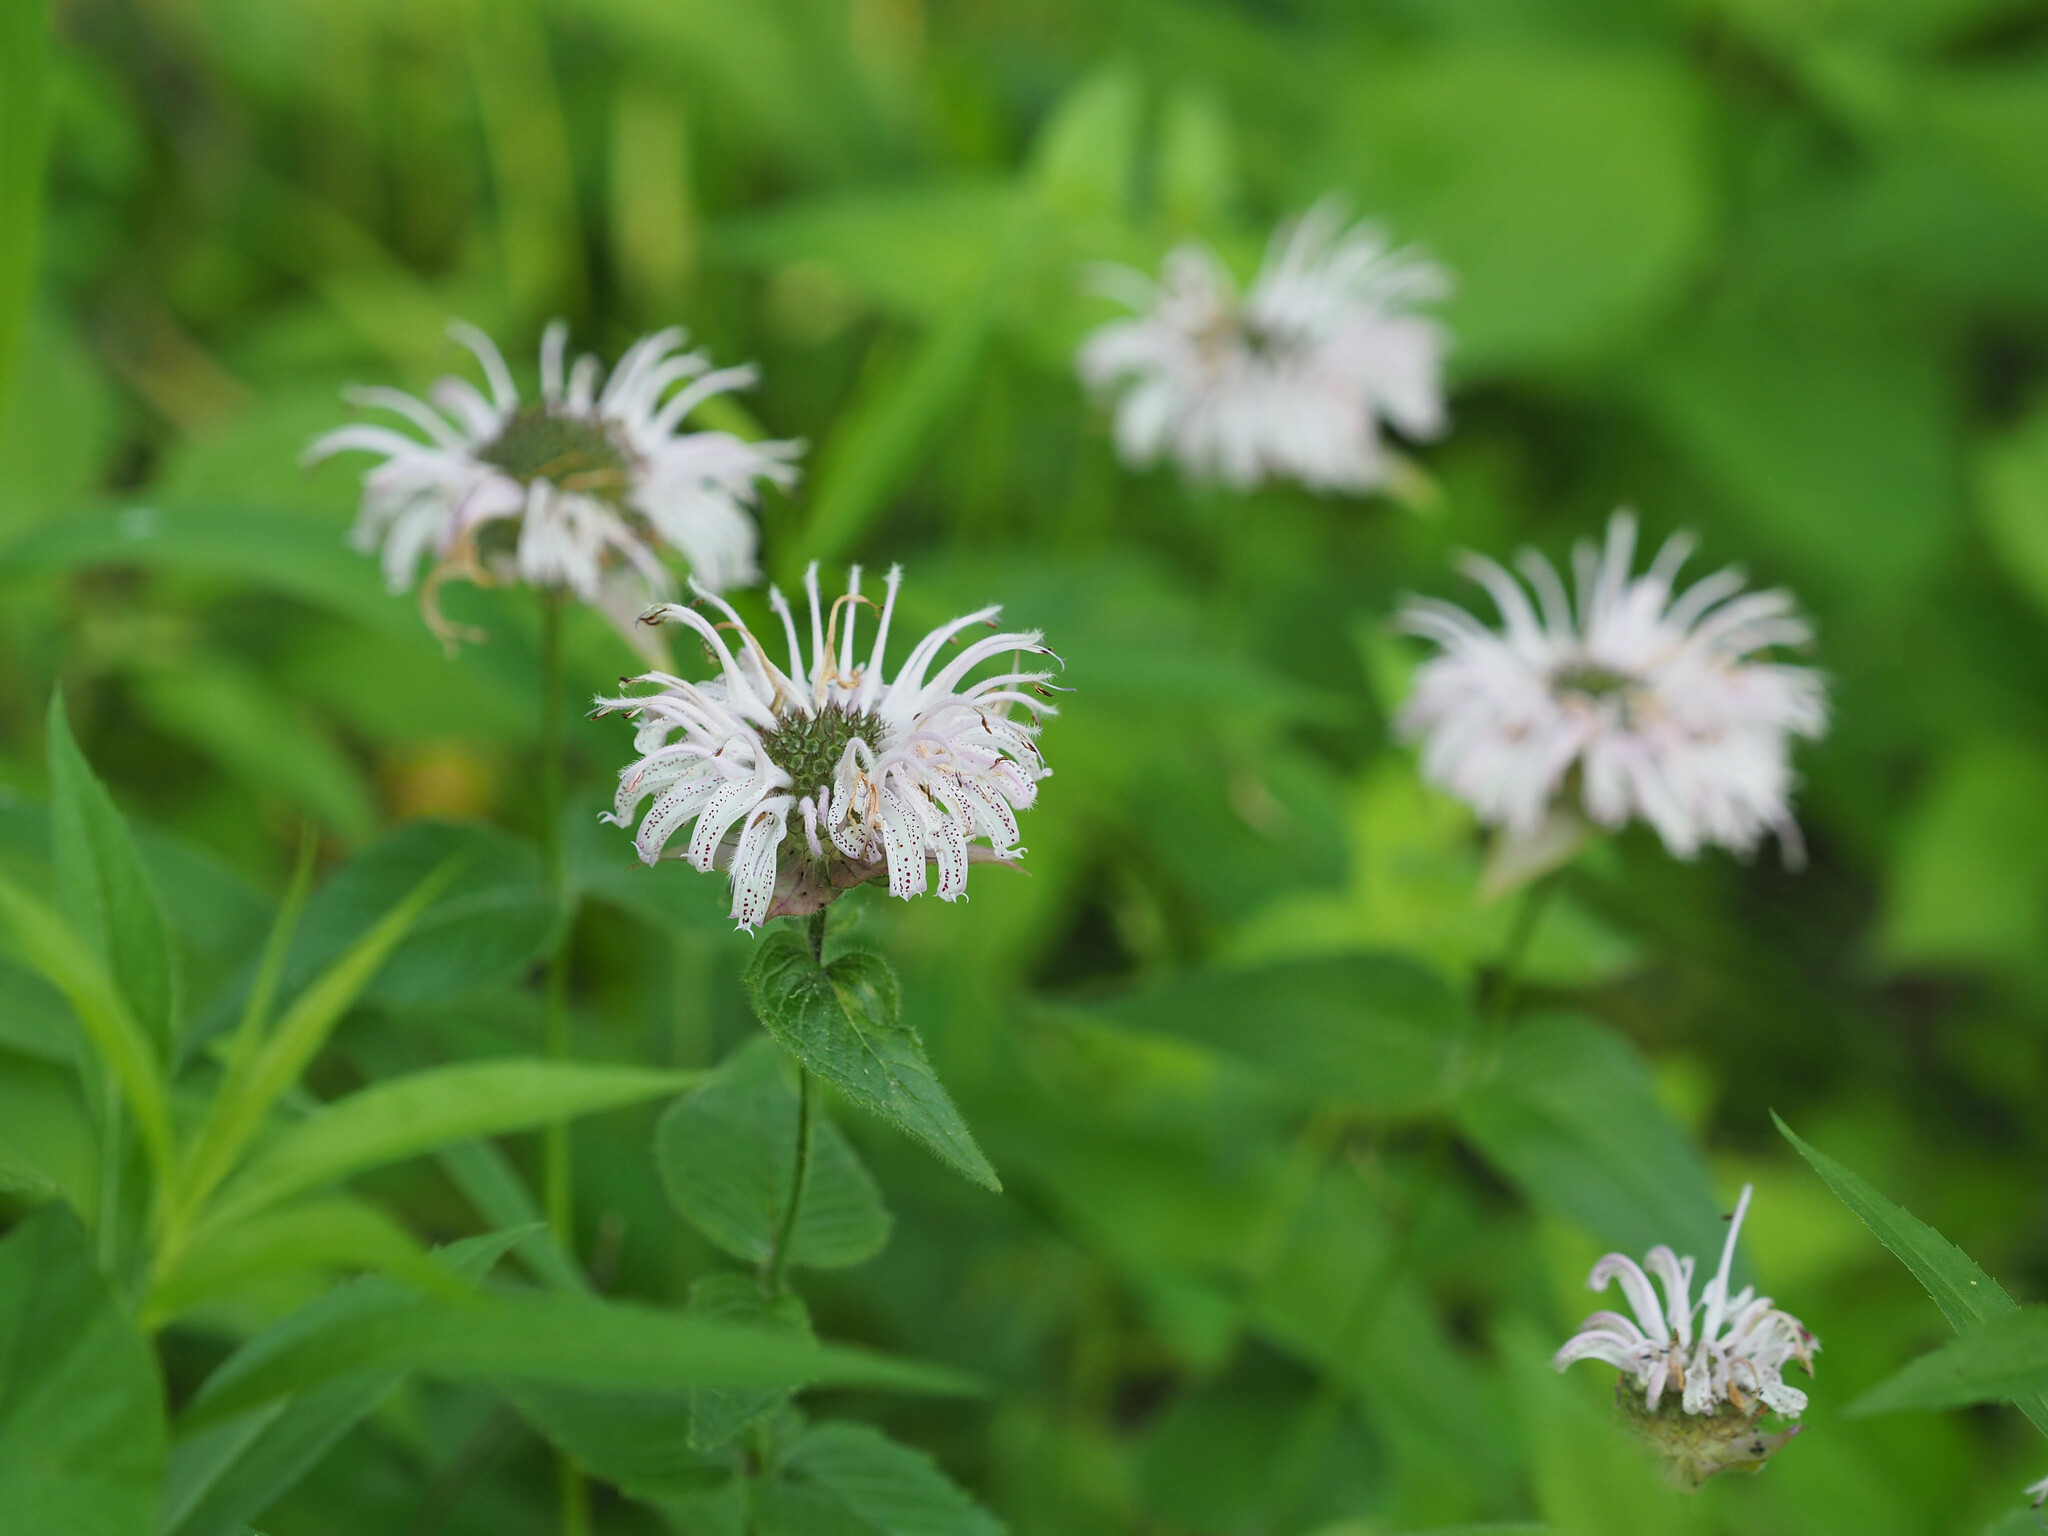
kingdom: Plantae
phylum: Tracheophyta
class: Magnoliopsida
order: Lamiales
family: Lamiaceae
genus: Monarda
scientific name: Monarda bradburiana
